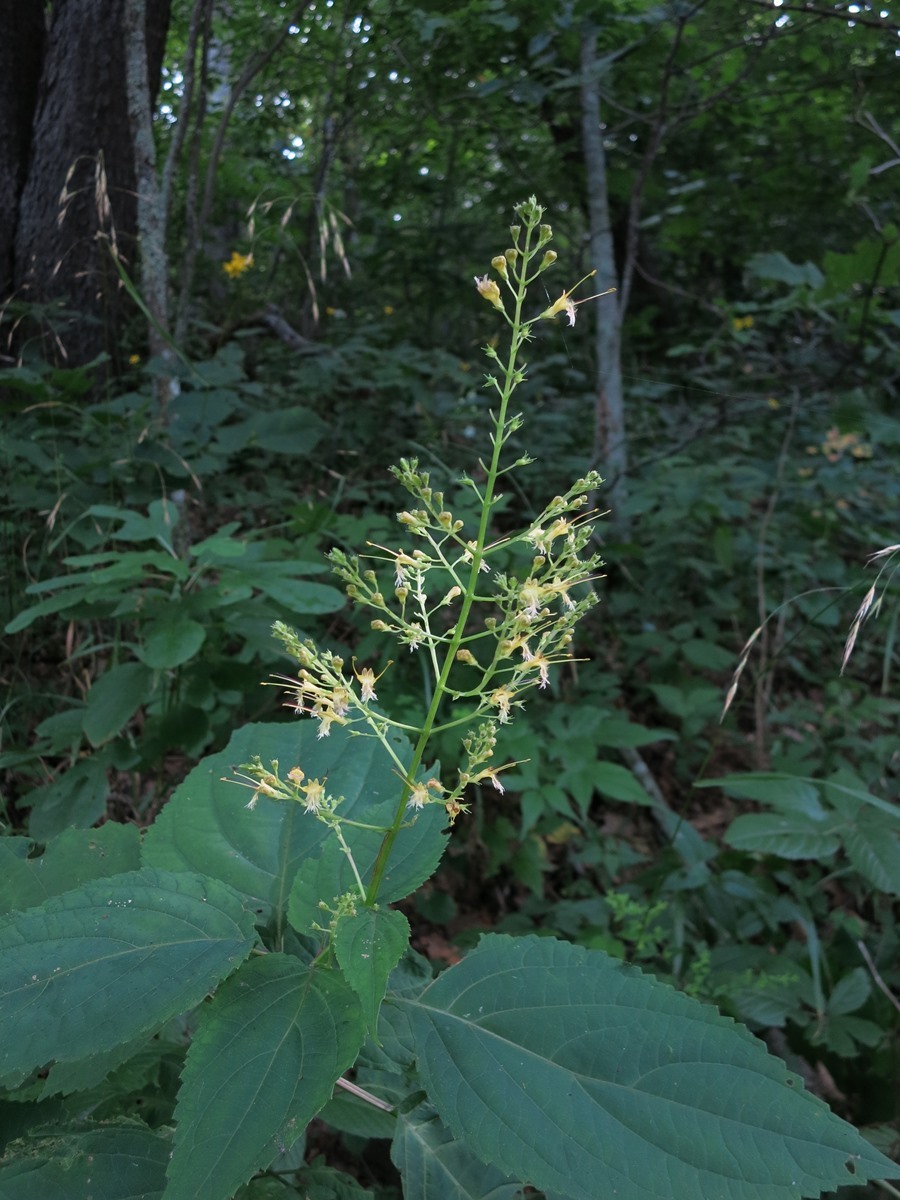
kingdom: Plantae
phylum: Tracheophyta
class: Magnoliopsida
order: Lamiales
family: Lamiaceae
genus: Collinsonia
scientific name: Collinsonia canadensis
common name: Northern horsebalm
